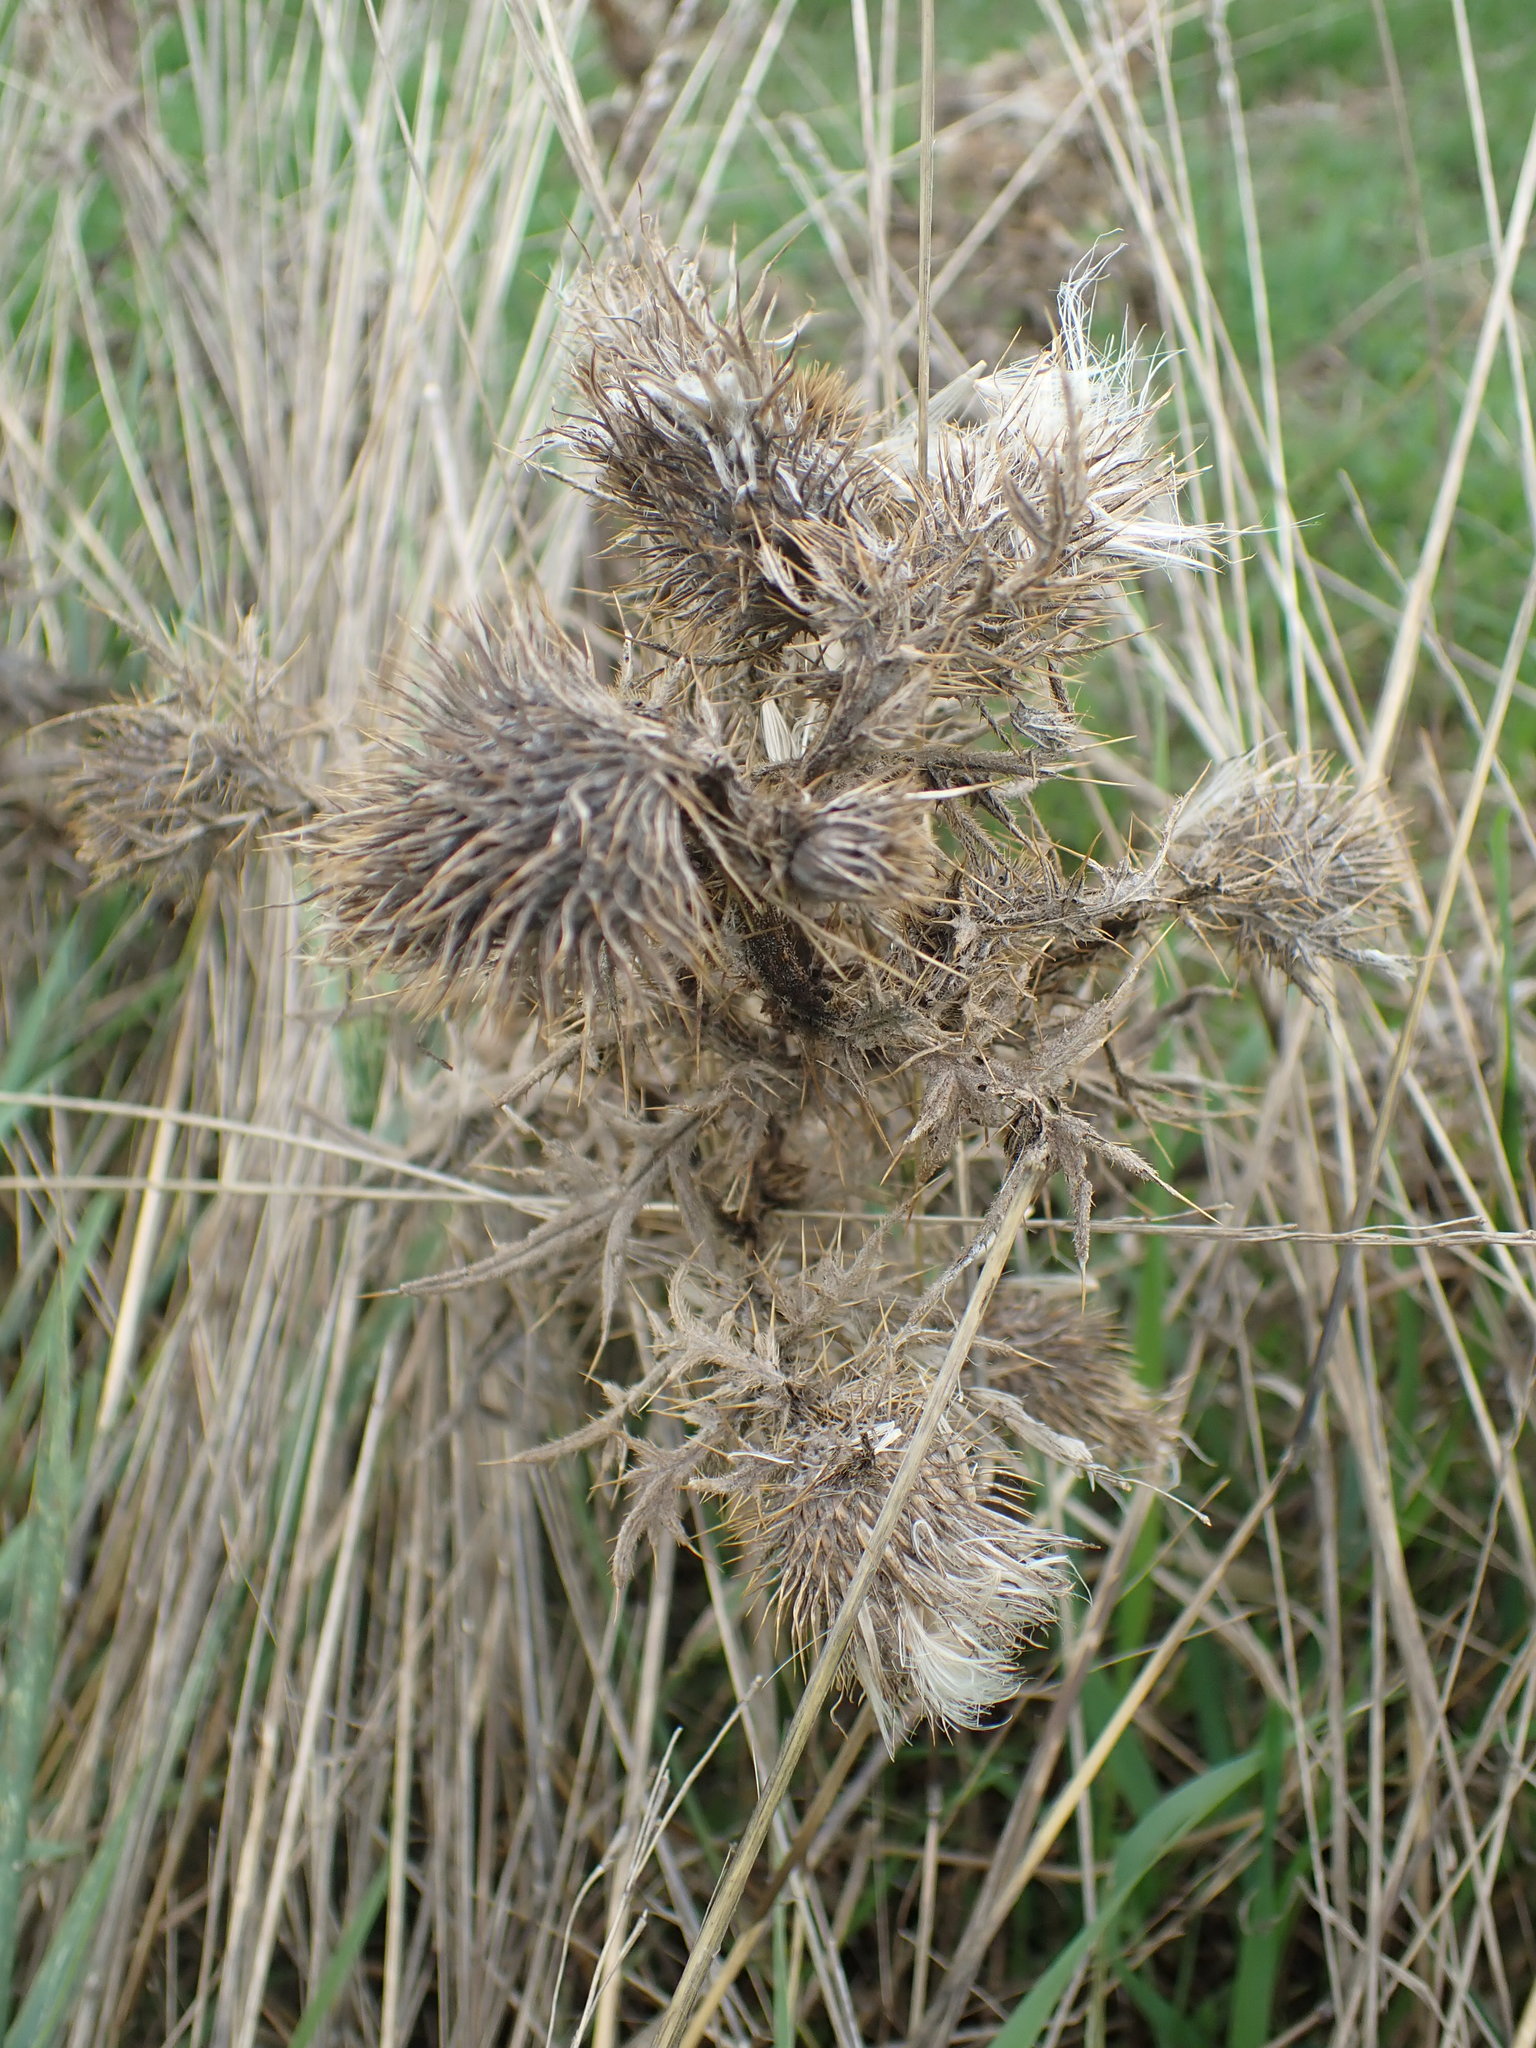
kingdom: Plantae
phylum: Tracheophyta
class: Magnoliopsida
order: Asterales
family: Asteraceae
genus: Cirsium
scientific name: Cirsium vulgare
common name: Bull thistle
